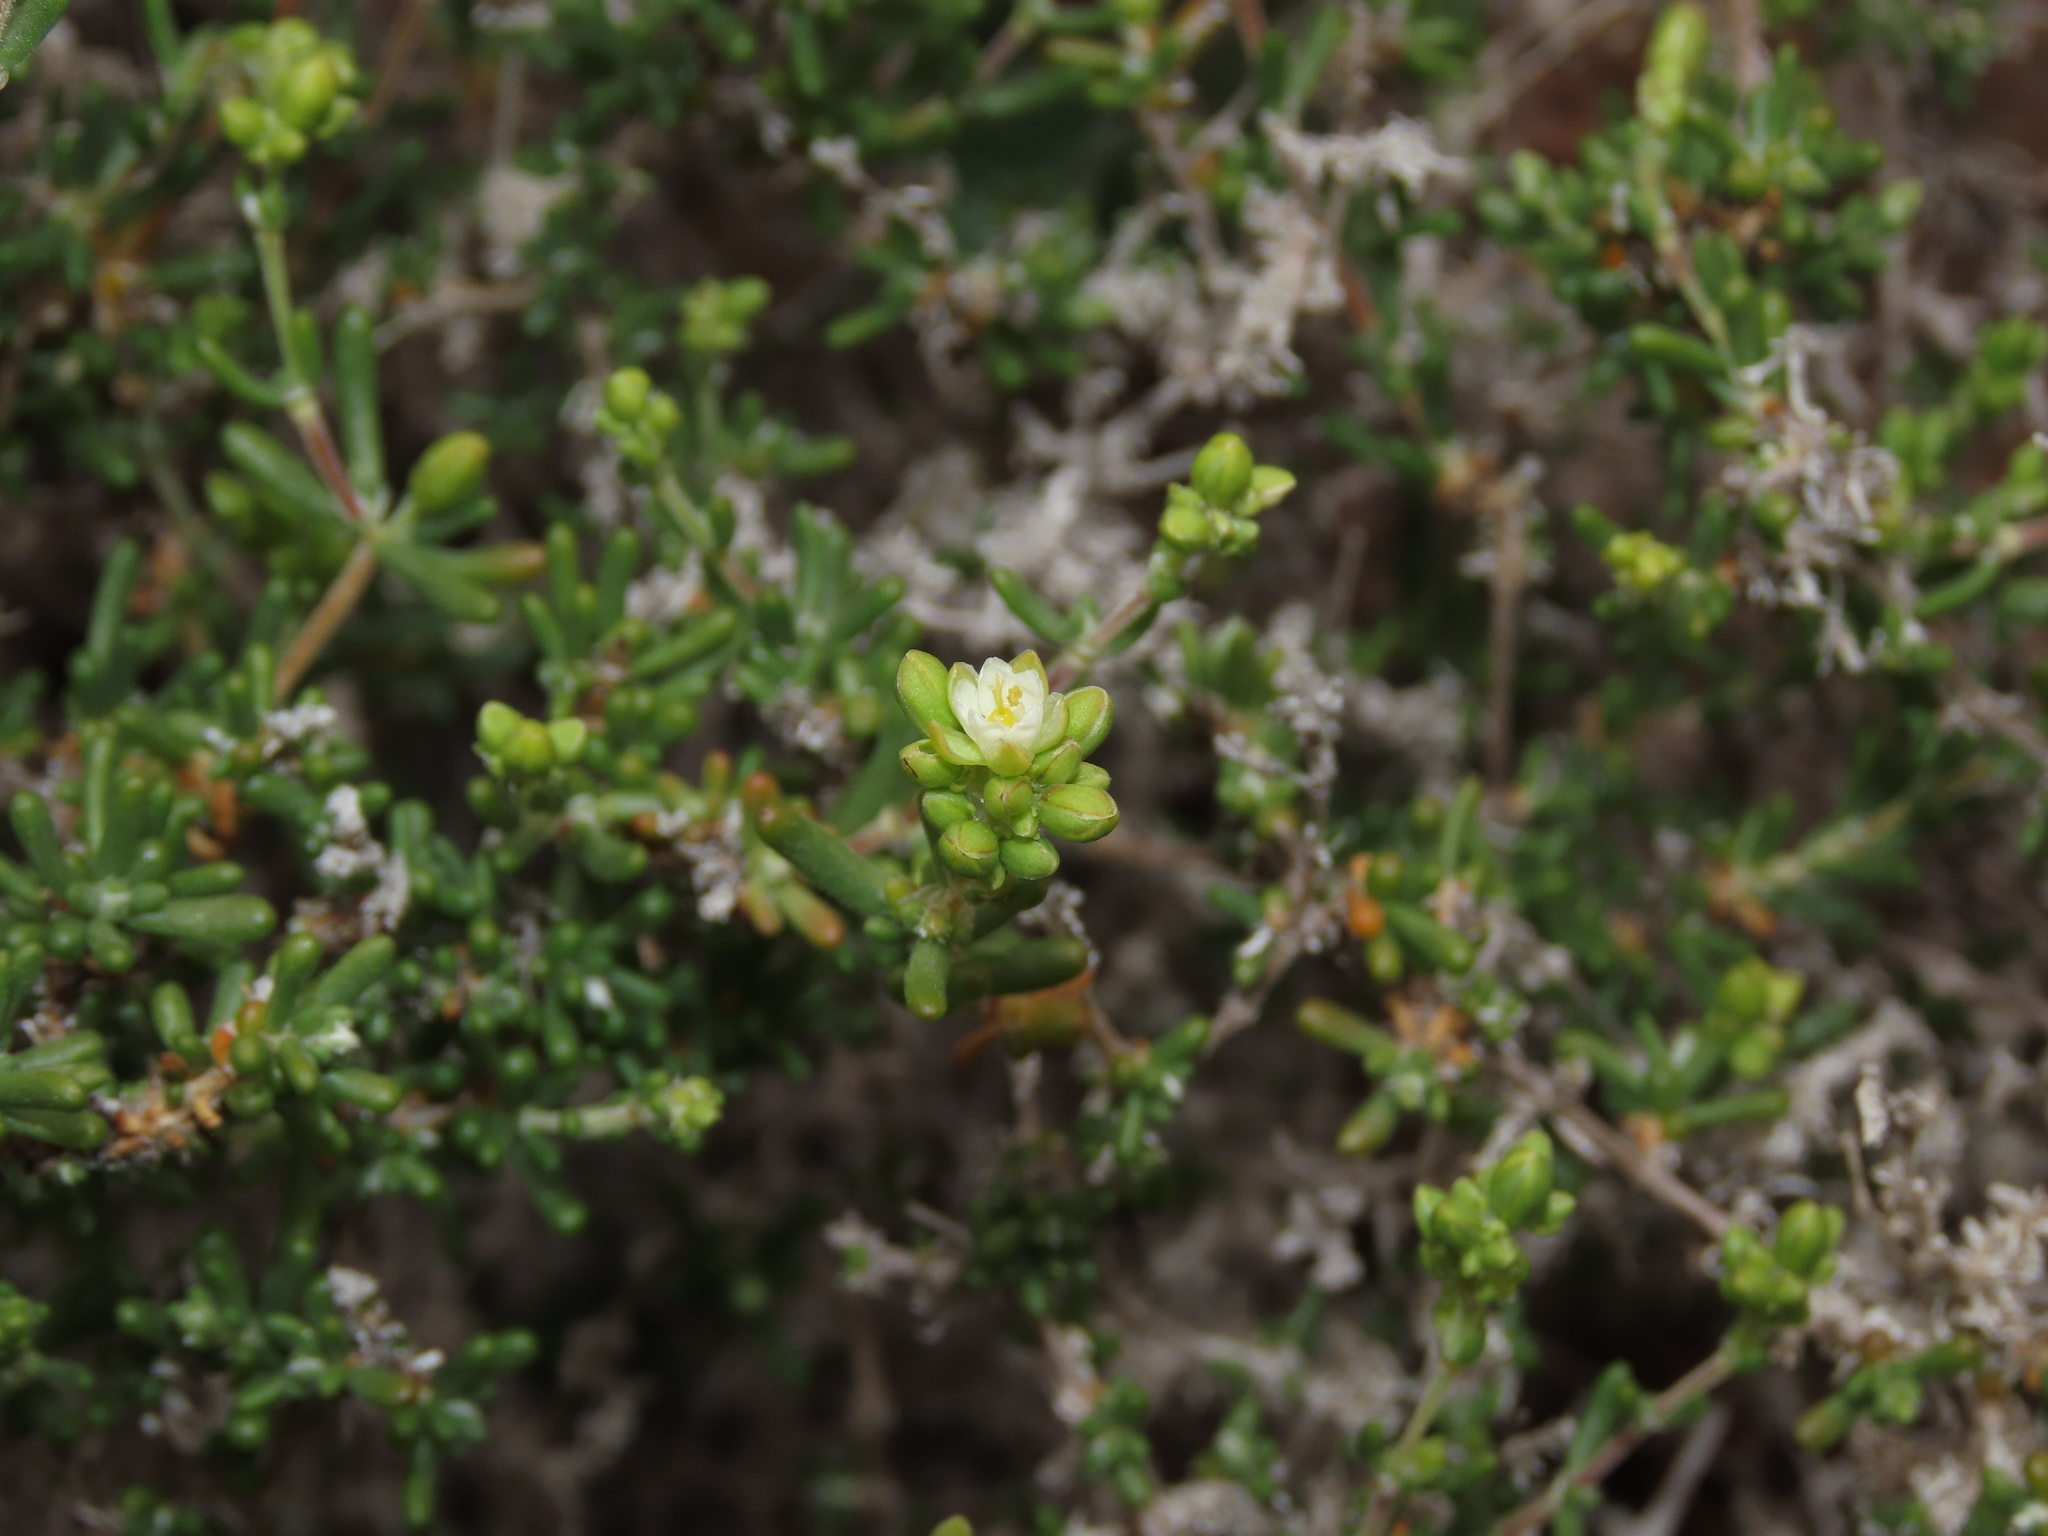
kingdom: Plantae
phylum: Tracheophyta
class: Magnoliopsida
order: Caryophyllales
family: Caryophyllaceae
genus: Spergularia
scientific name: Spergularia arbuscula
